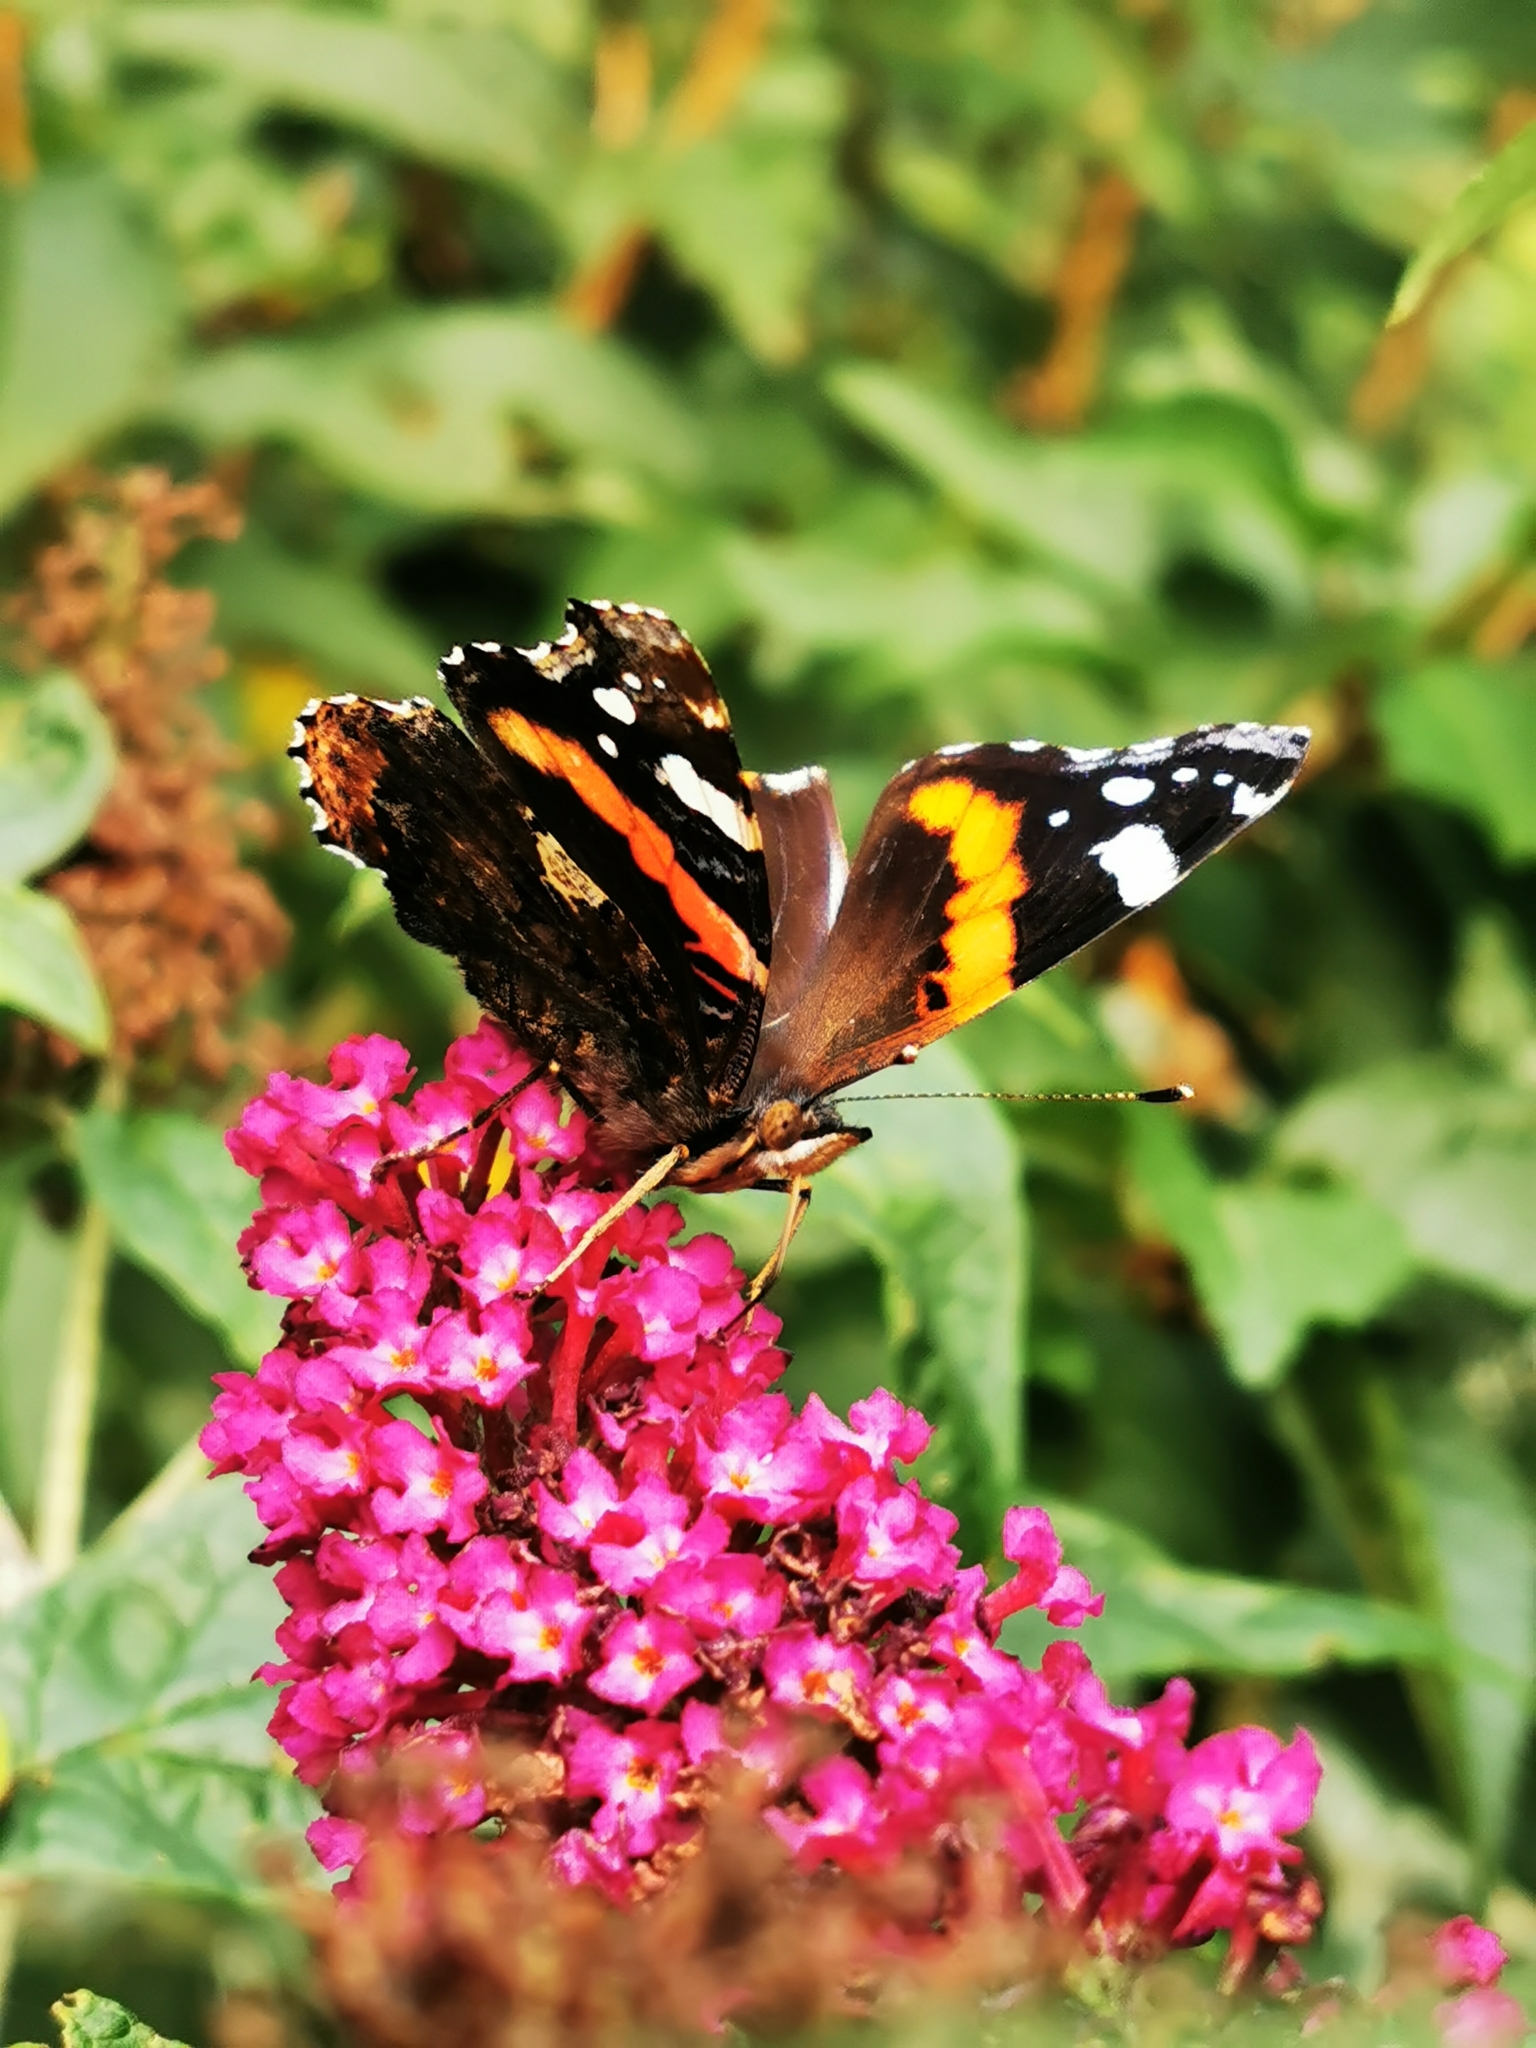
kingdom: Animalia
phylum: Arthropoda
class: Insecta
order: Lepidoptera
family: Nymphalidae
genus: Vanessa
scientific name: Vanessa atalanta
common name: Red admiral
